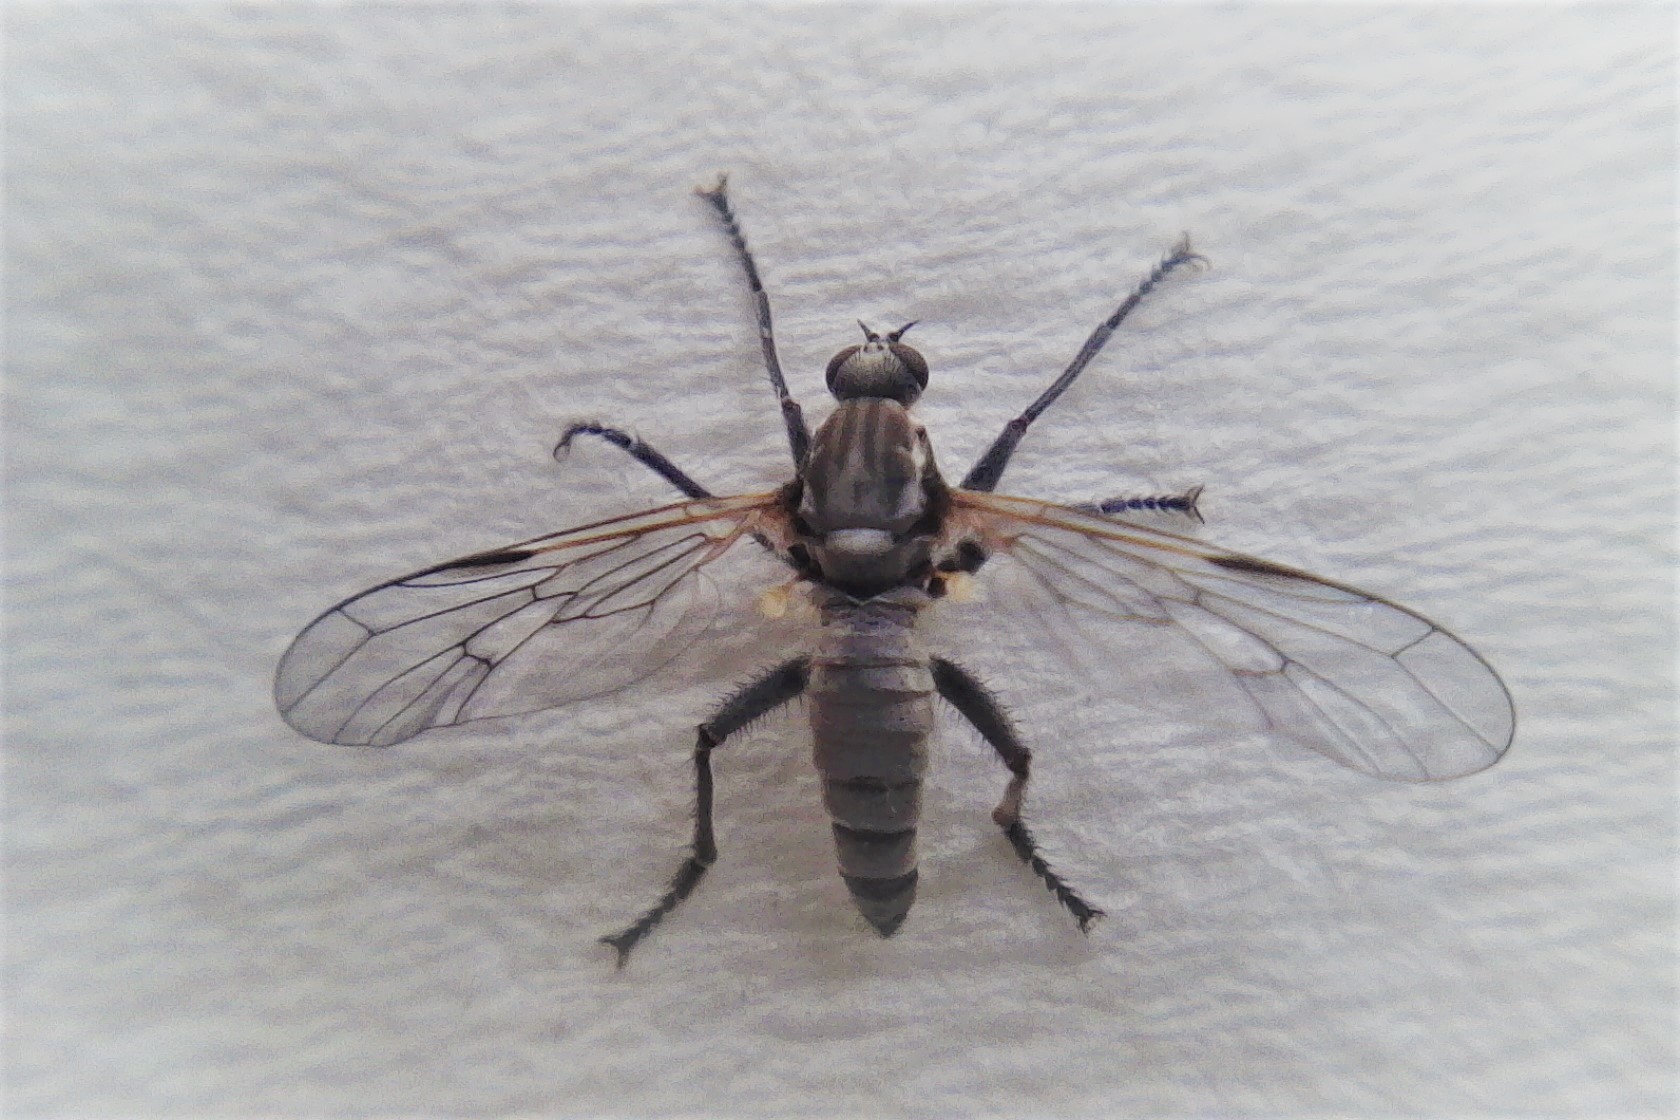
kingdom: Animalia
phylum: Arthropoda
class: Insecta
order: Diptera
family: Empididae
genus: Empis
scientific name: Empis brouni
